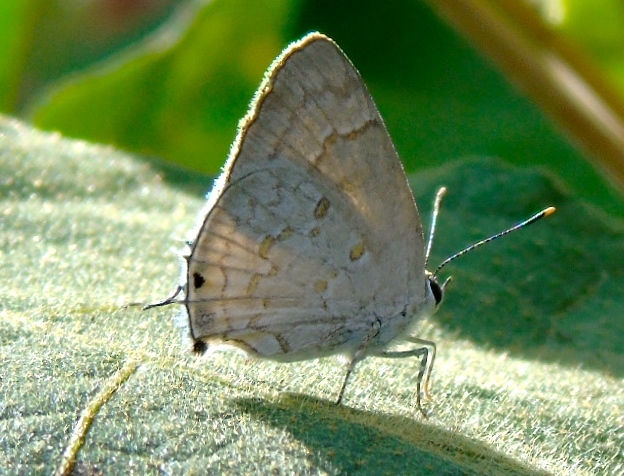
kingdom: Animalia
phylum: Arthropoda
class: Insecta
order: Lepidoptera
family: Lycaenidae
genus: Tmolus
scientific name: Tmolus echion
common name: Red-spotted hairstreak
